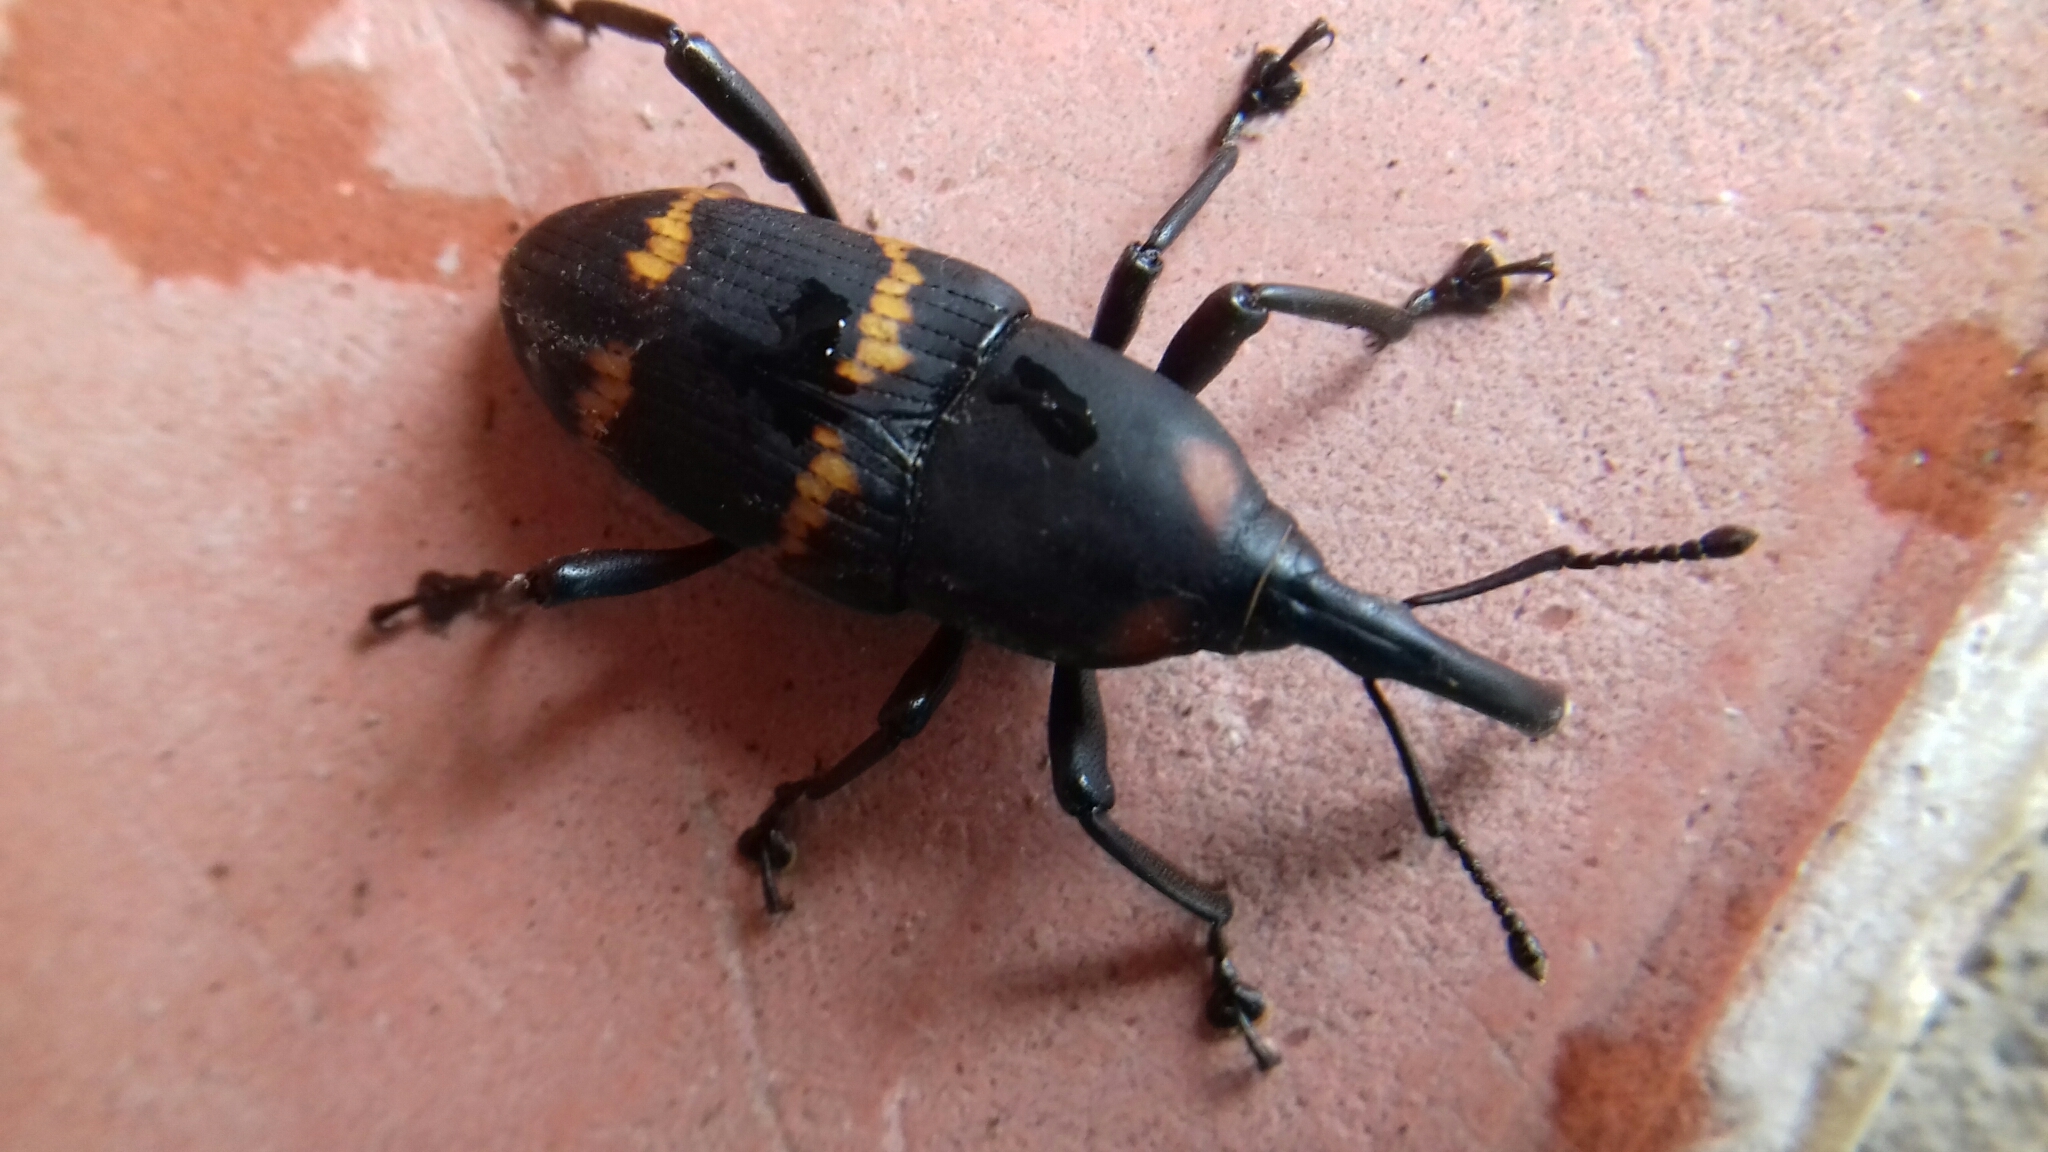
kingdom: Animalia
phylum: Arthropoda
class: Insecta
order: Coleoptera
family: Dryophthoridae
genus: Cactophagus
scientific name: Cactophagus spinolae
